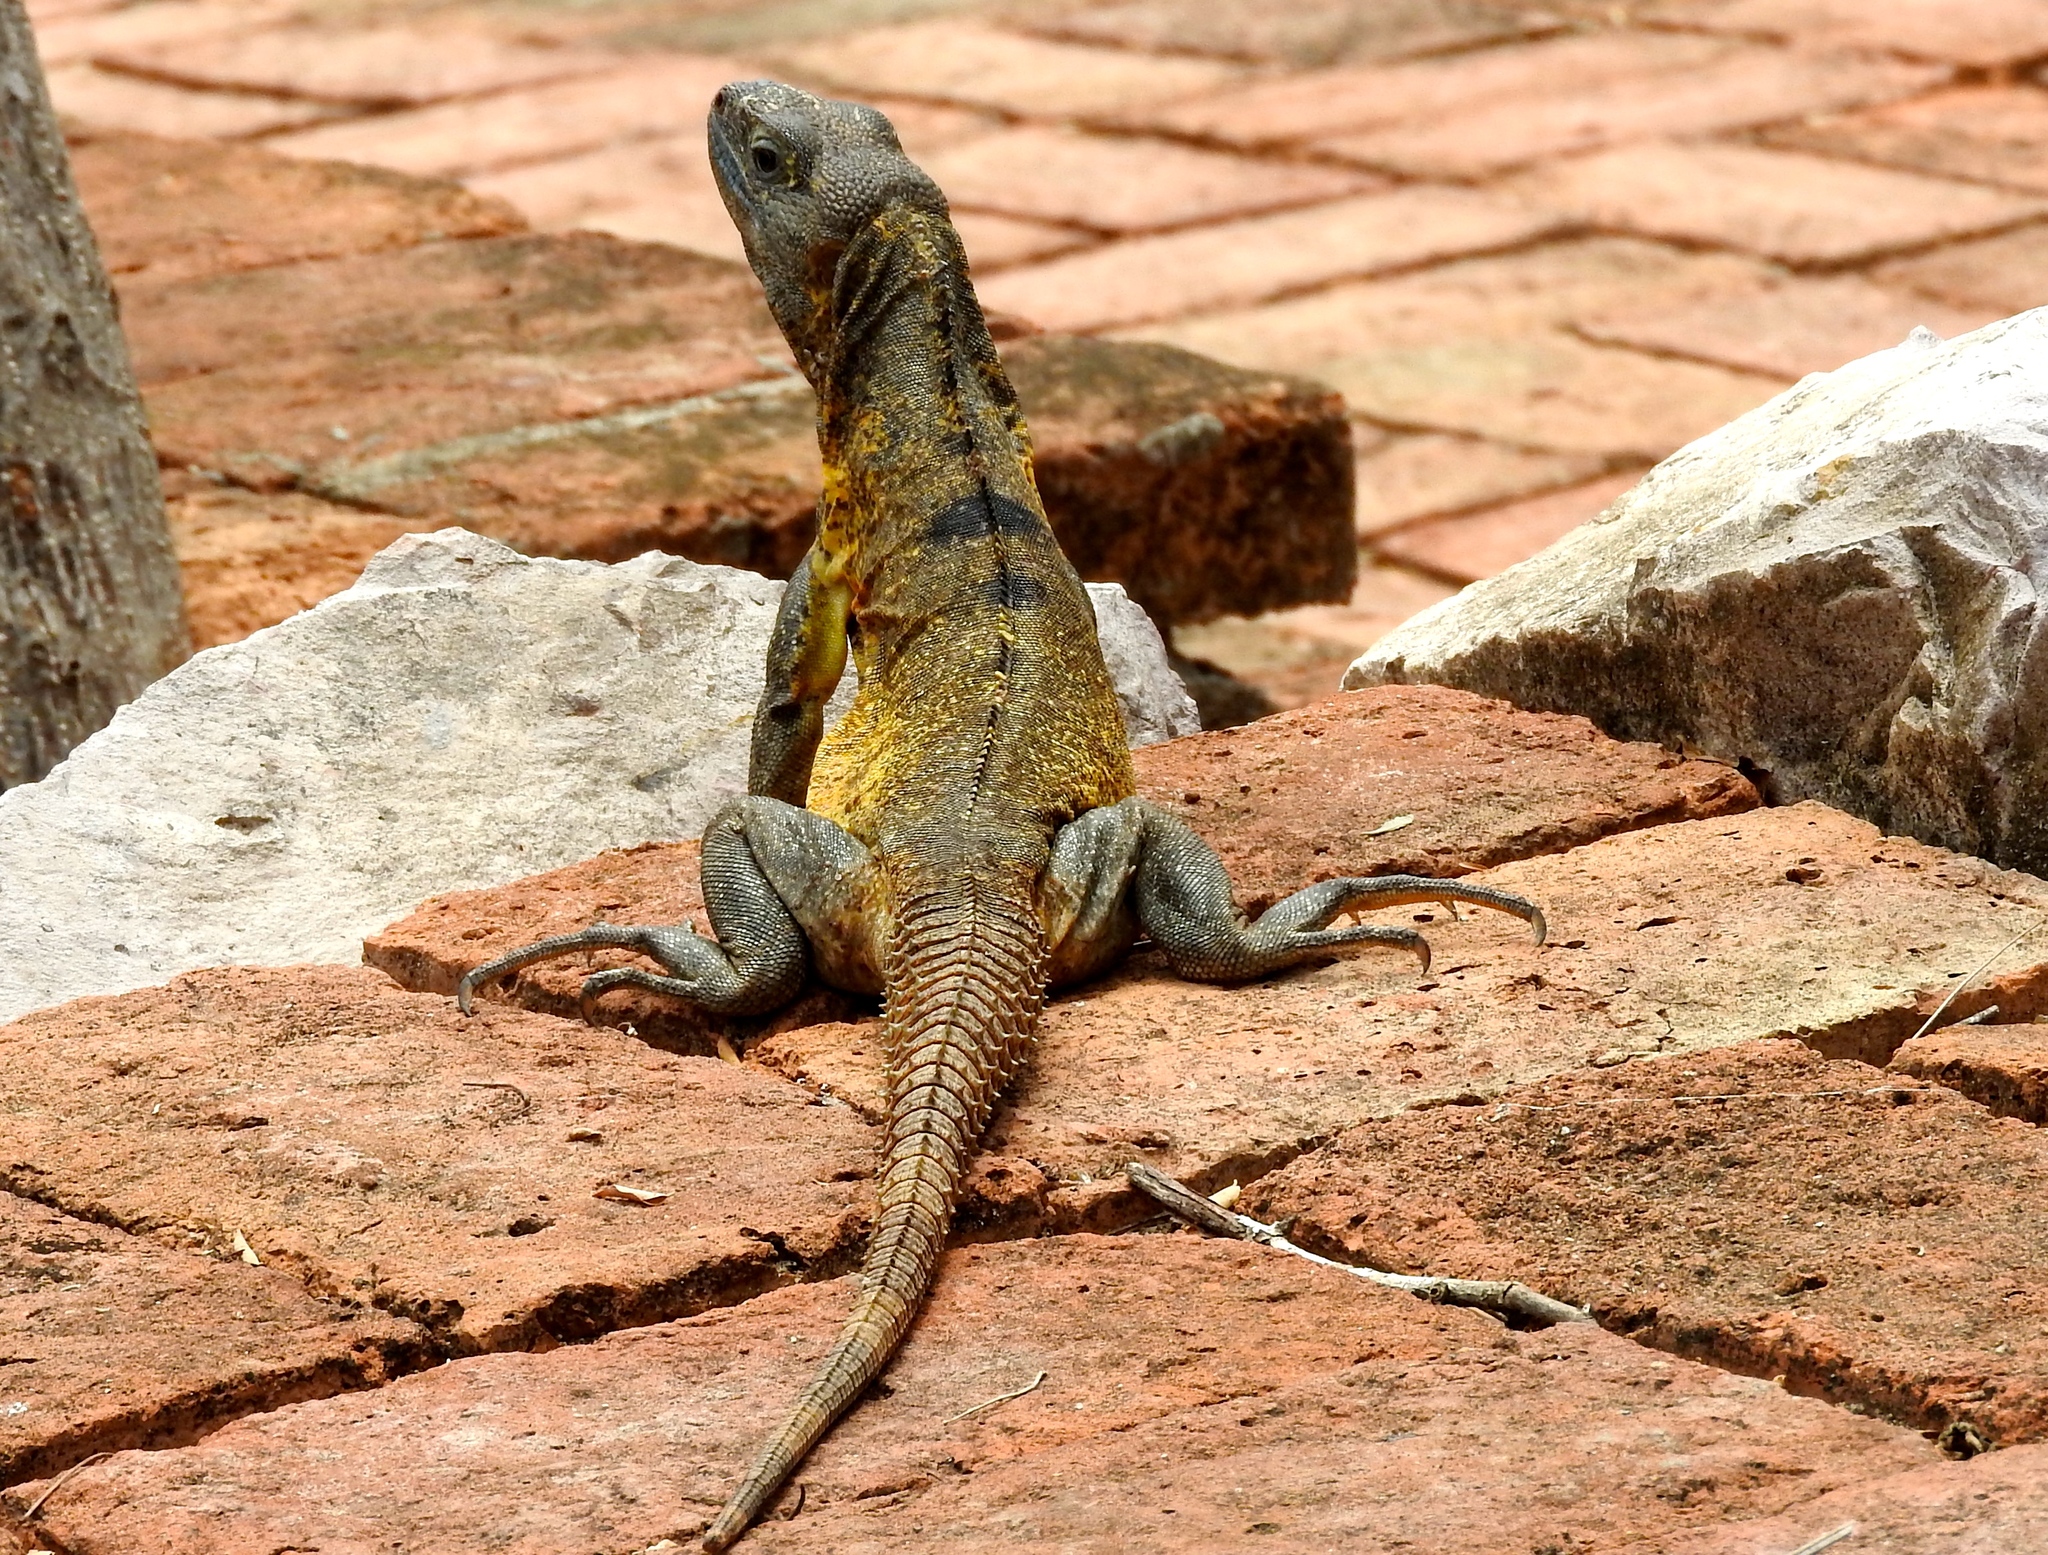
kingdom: Animalia
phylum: Chordata
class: Squamata
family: Iguanidae
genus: Ctenosaura
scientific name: Ctenosaura pectinata
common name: Guerreran spiny-tailed iguana
